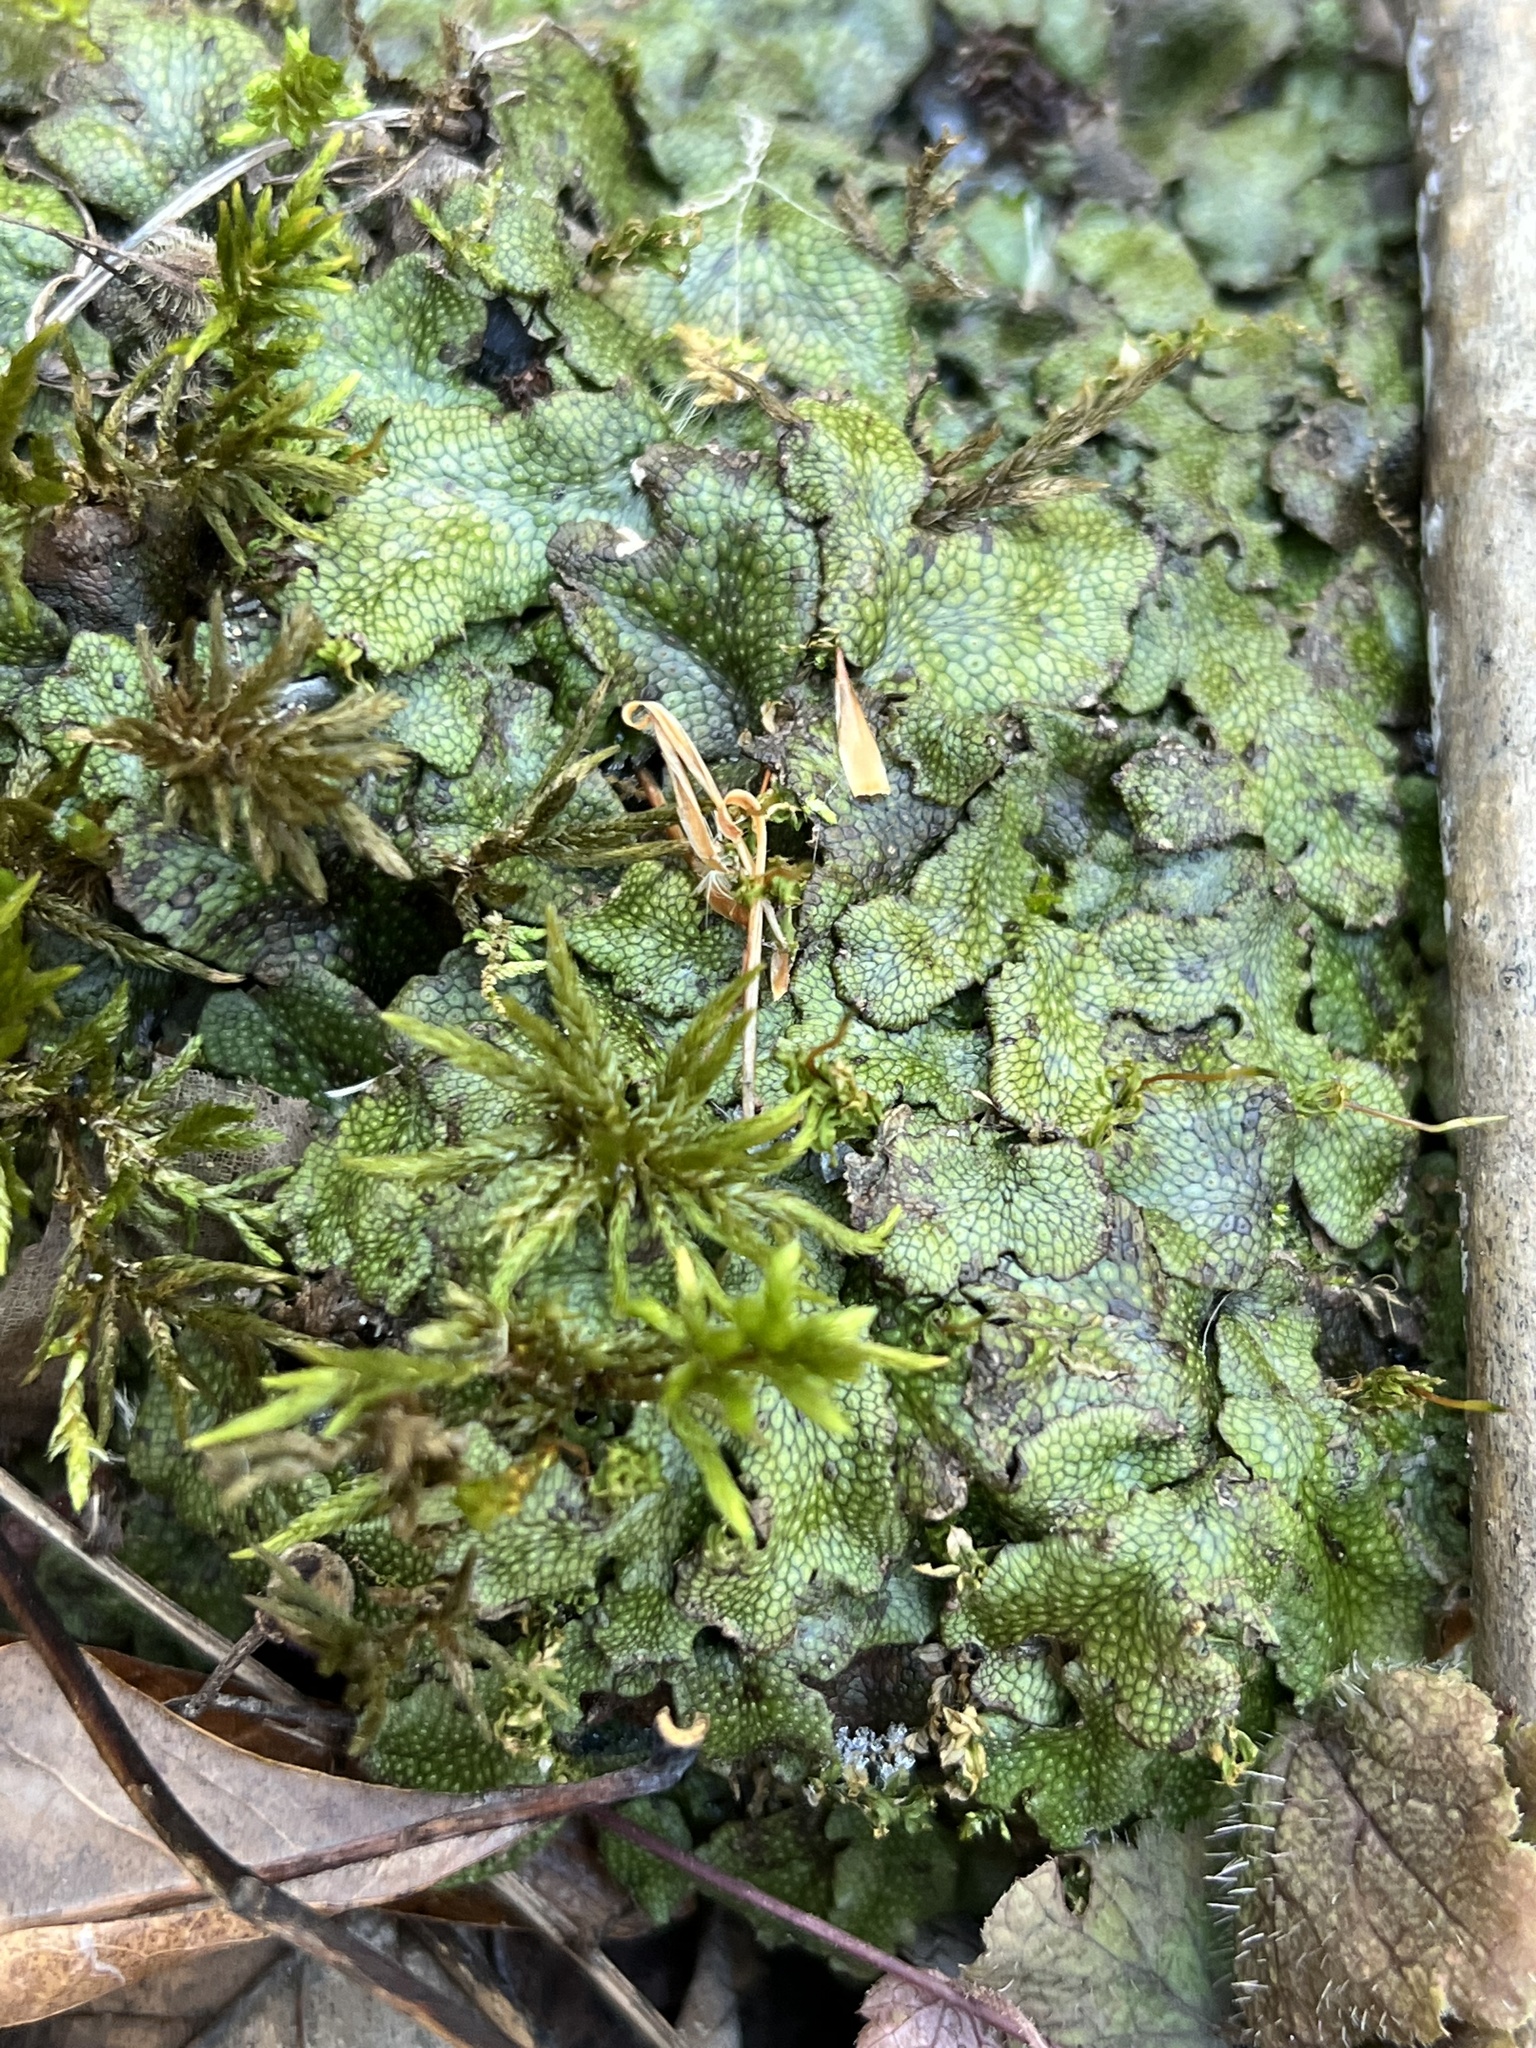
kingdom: Plantae
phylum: Marchantiophyta
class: Marchantiopsida
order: Marchantiales
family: Conocephalaceae
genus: Conocephalum
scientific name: Conocephalum salebrosum
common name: Cat-tongue liverwort
